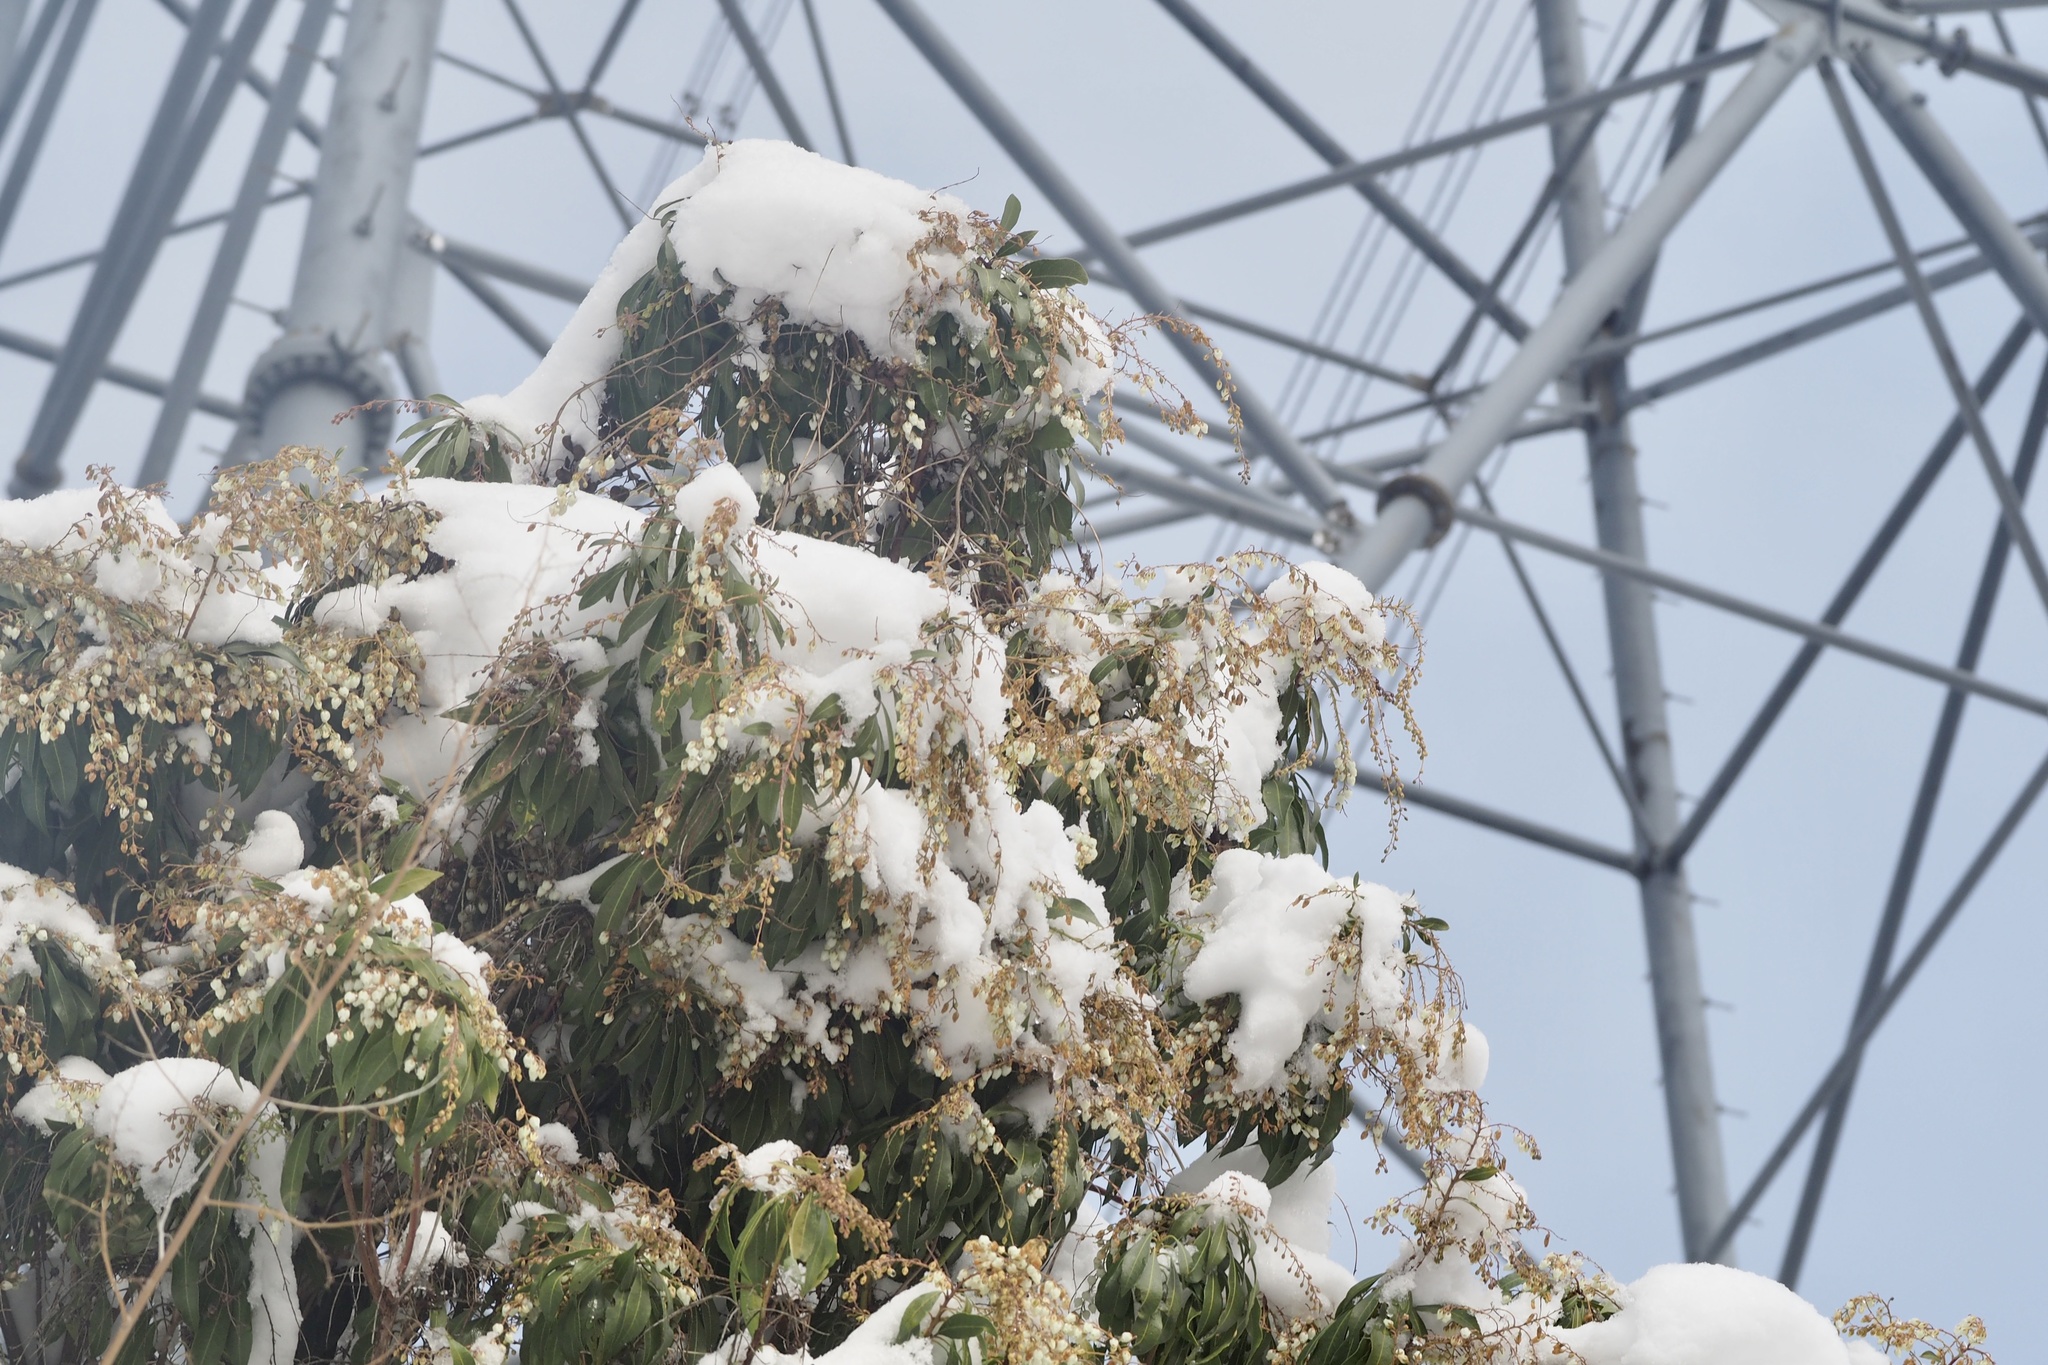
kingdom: Plantae
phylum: Tracheophyta
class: Magnoliopsida
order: Ericales
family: Ericaceae
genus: Pieris
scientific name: Pieris japonica
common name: Japanese pieris
